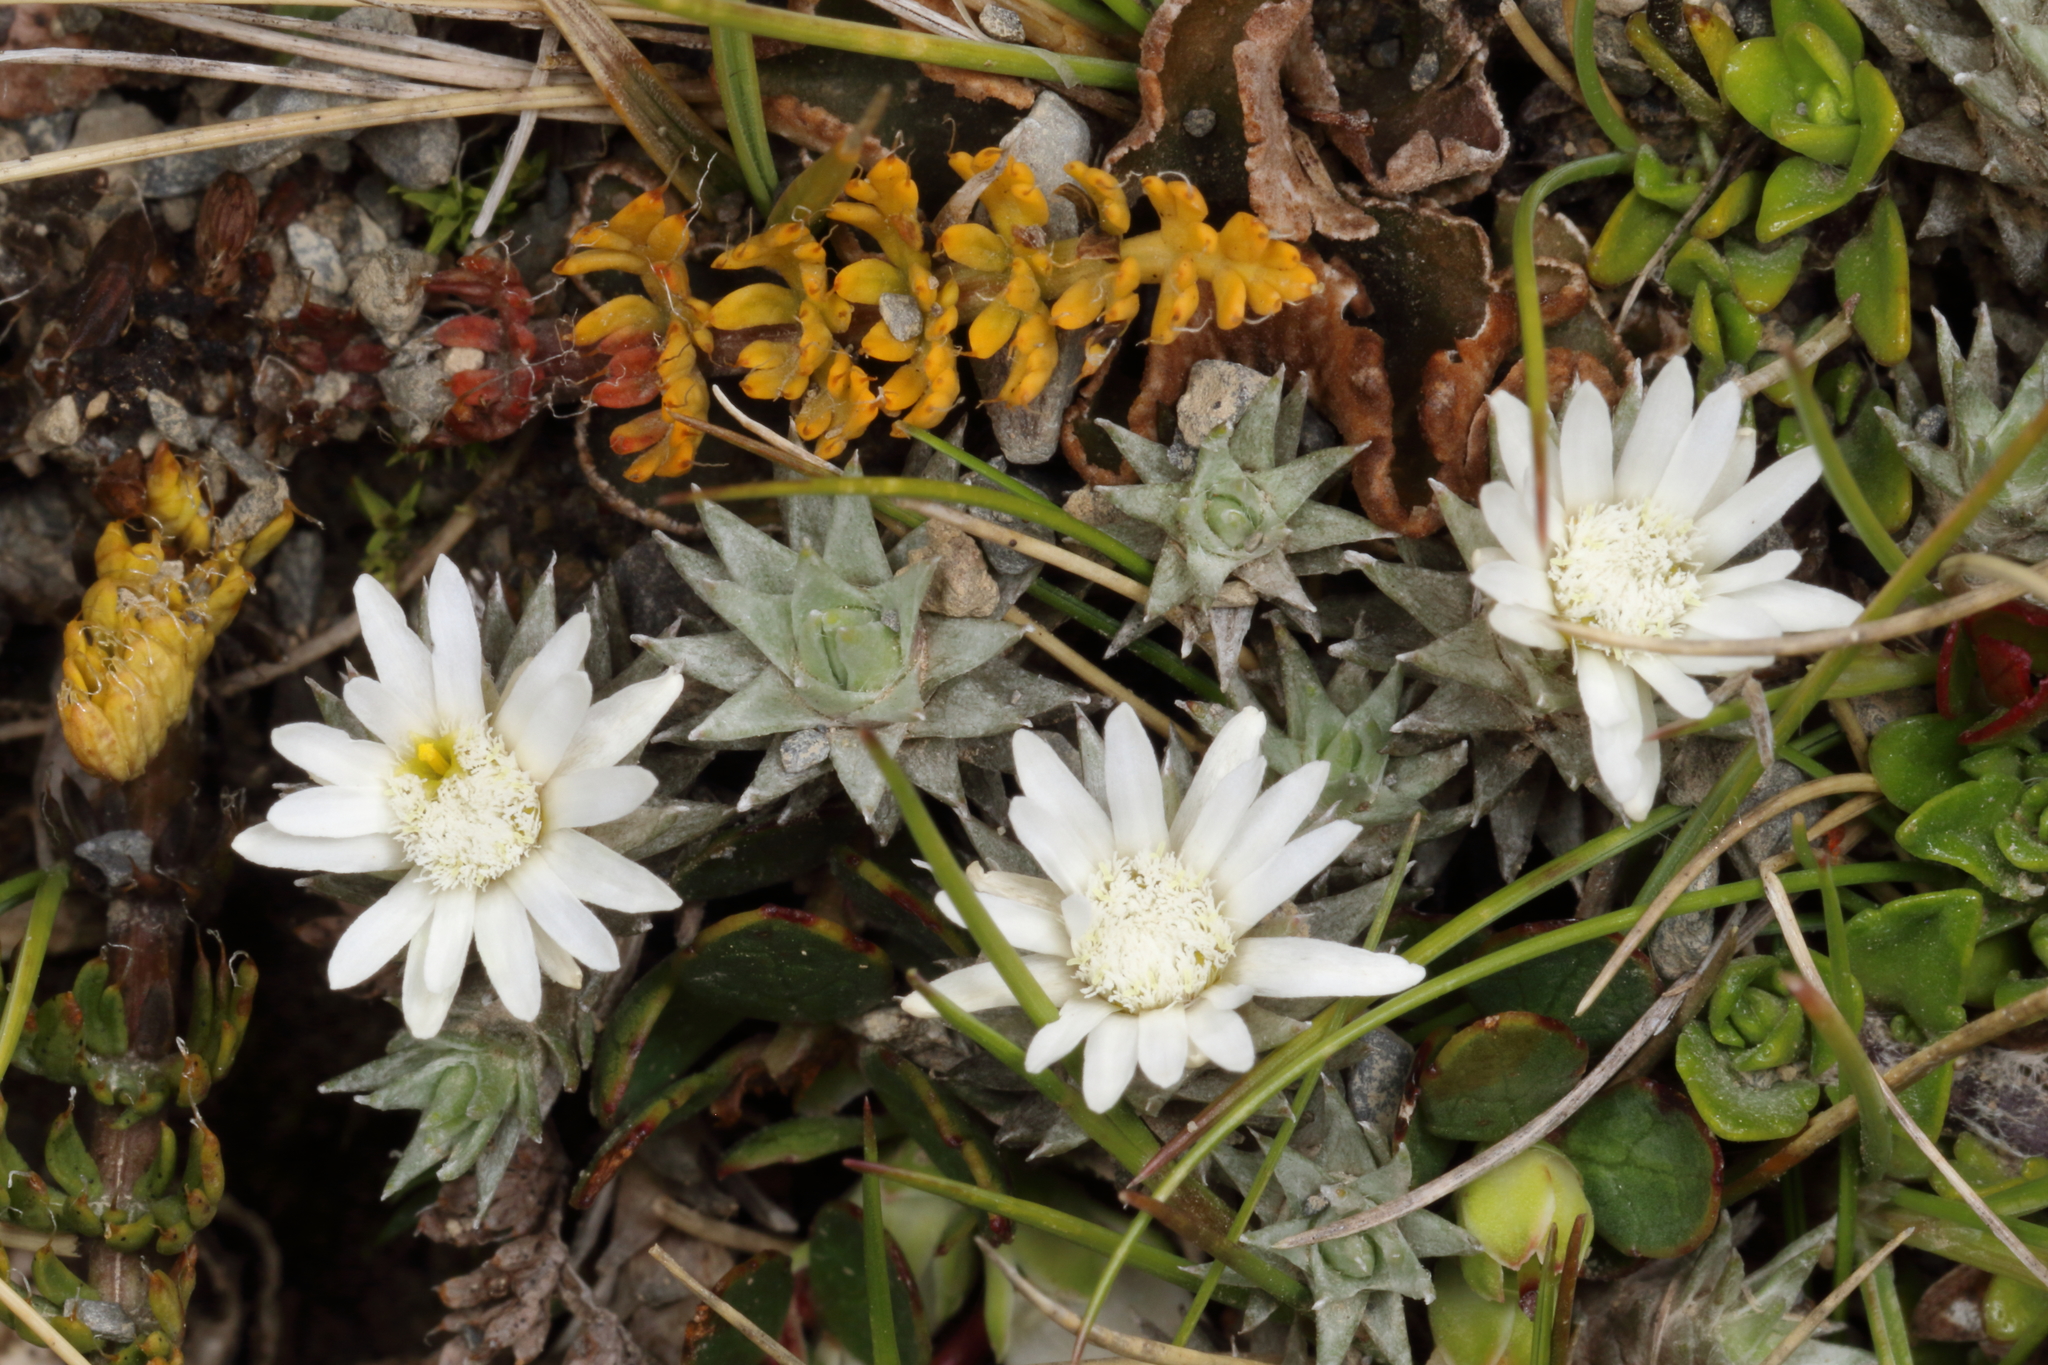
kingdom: Plantae
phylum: Tracheophyta
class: Magnoliopsida
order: Asterales
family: Asteraceae
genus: Raoulia
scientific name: Raoulia grandiflora
